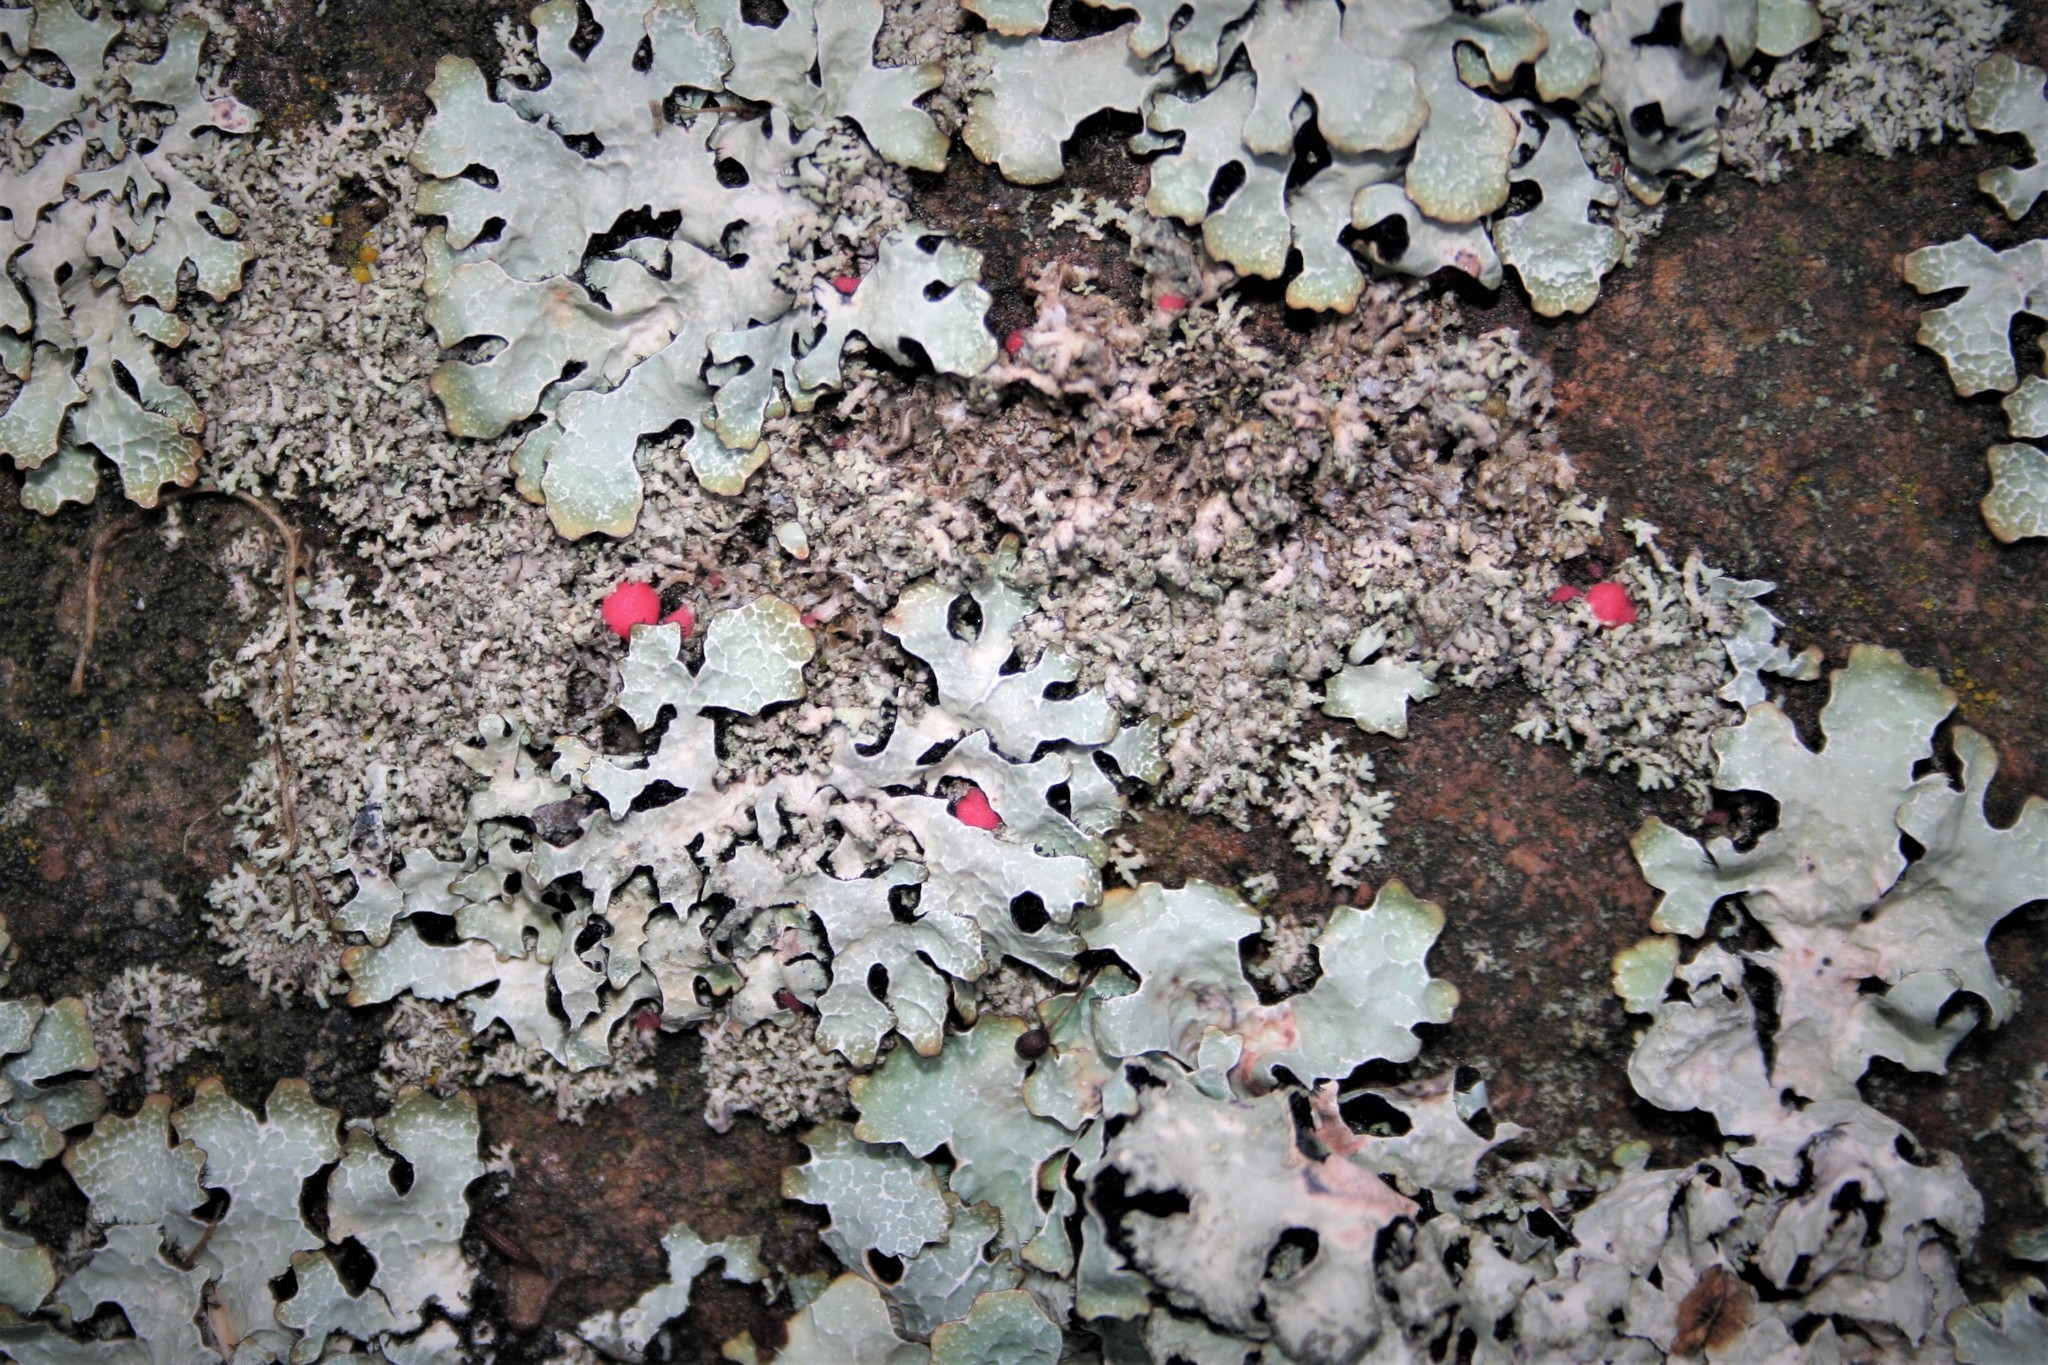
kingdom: Fungi
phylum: Ascomycota
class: Sordariomycetes
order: Hypocreales
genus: Illosporiopsis
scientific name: Illosporiopsis christiansenii
